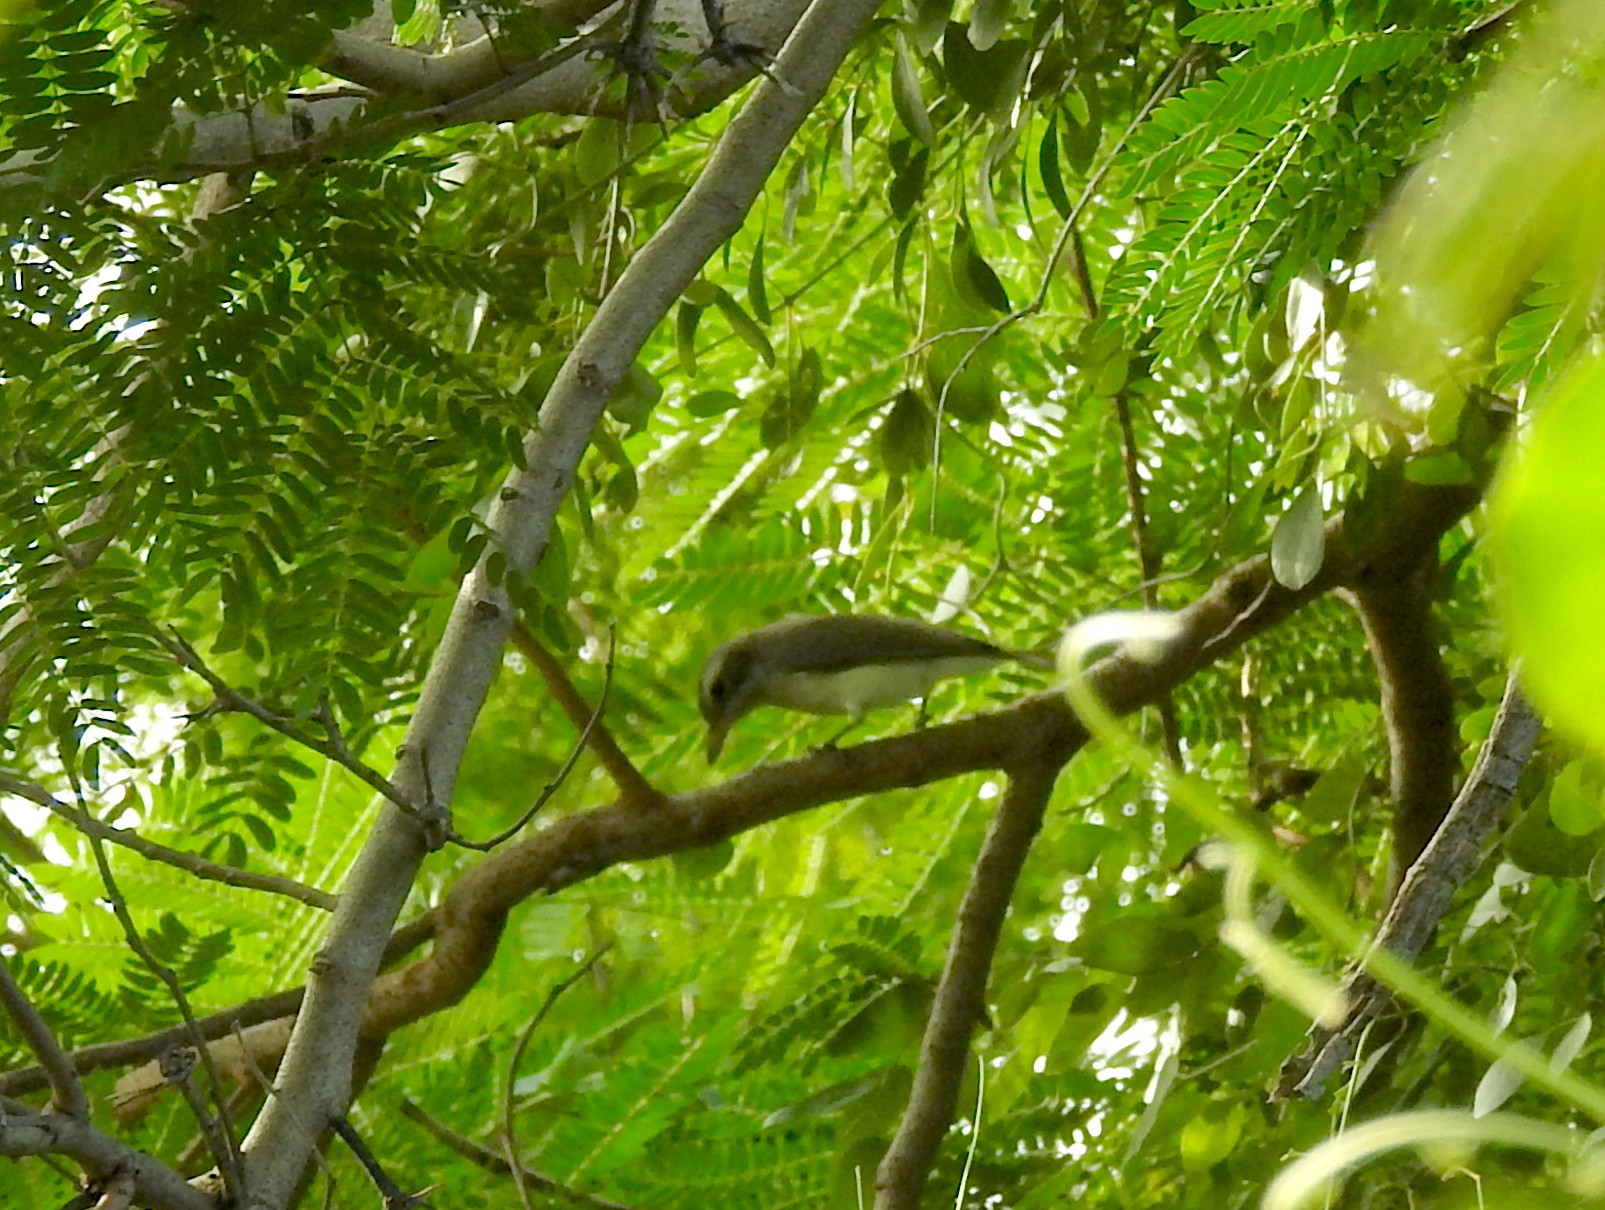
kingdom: Animalia
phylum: Chordata
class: Aves
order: Passeriformes
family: Tephrodornithidae
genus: Tephrodornis
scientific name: Tephrodornis pondicerianus
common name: Common woodshrike
